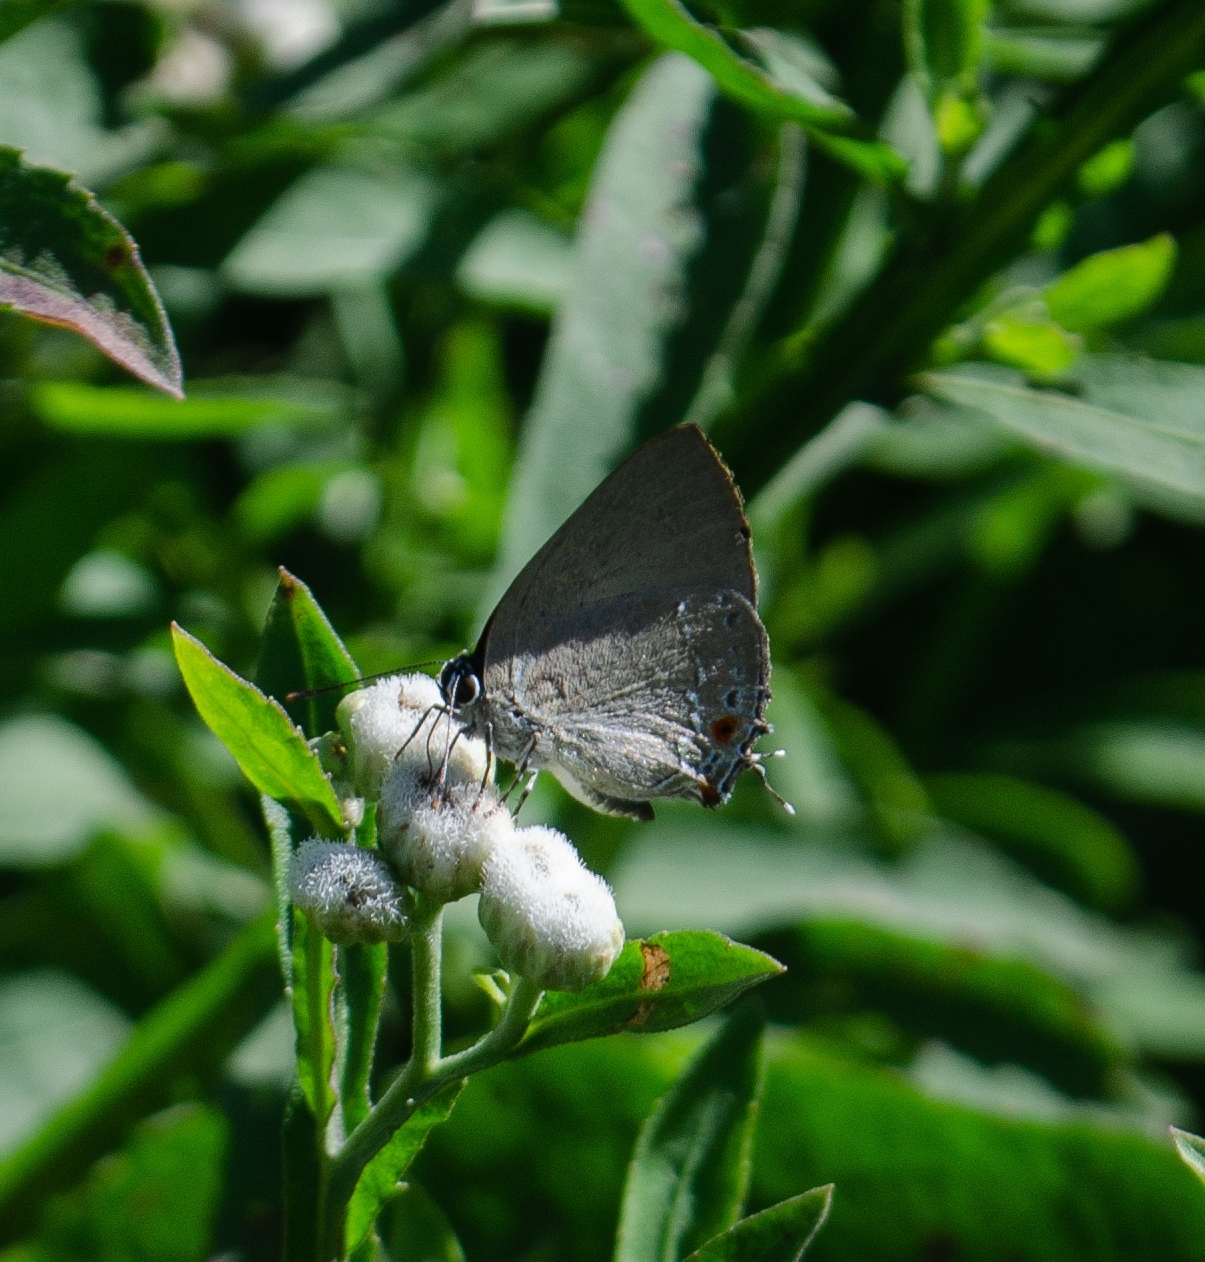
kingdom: Animalia
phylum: Arthropoda
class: Insecta
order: Lepidoptera
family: Lycaenidae
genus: Kolana
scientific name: Kolana
